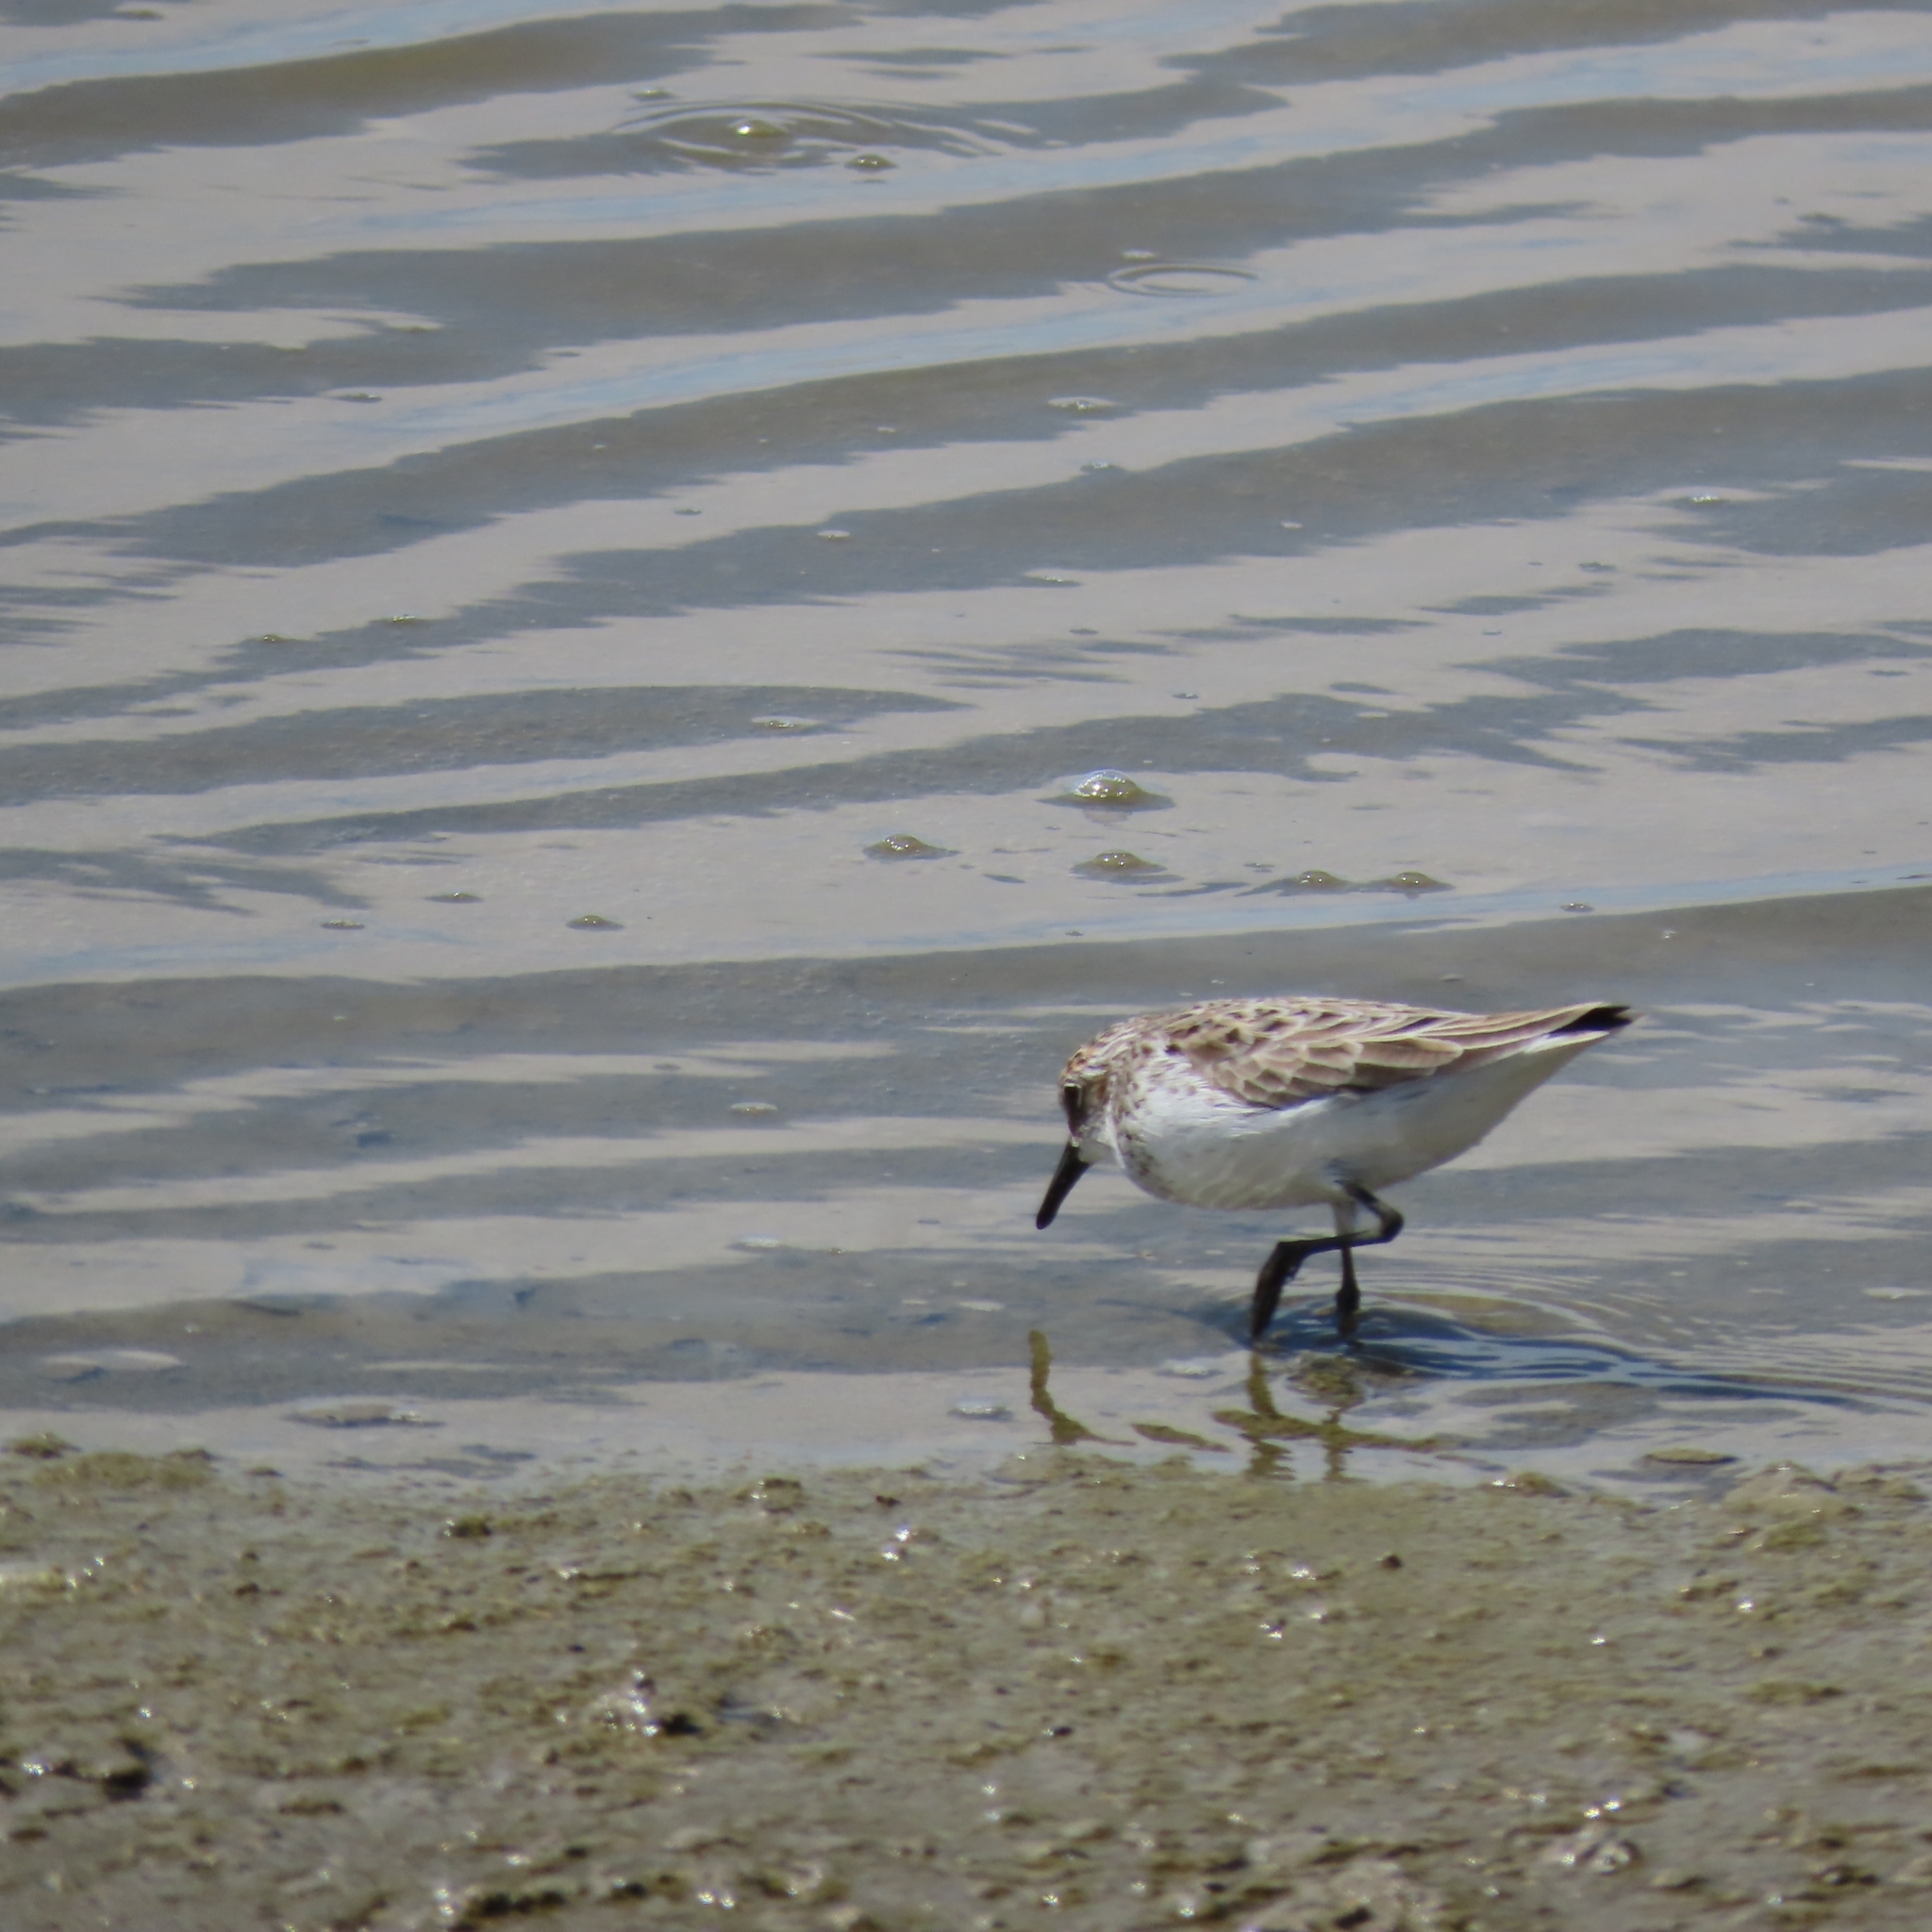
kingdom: Animalia
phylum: Chordata
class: Aves
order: Charadriiformes
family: Scolopacidae
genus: Calidris
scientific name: Calidris pusilla
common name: Semipalmated sandpiper
